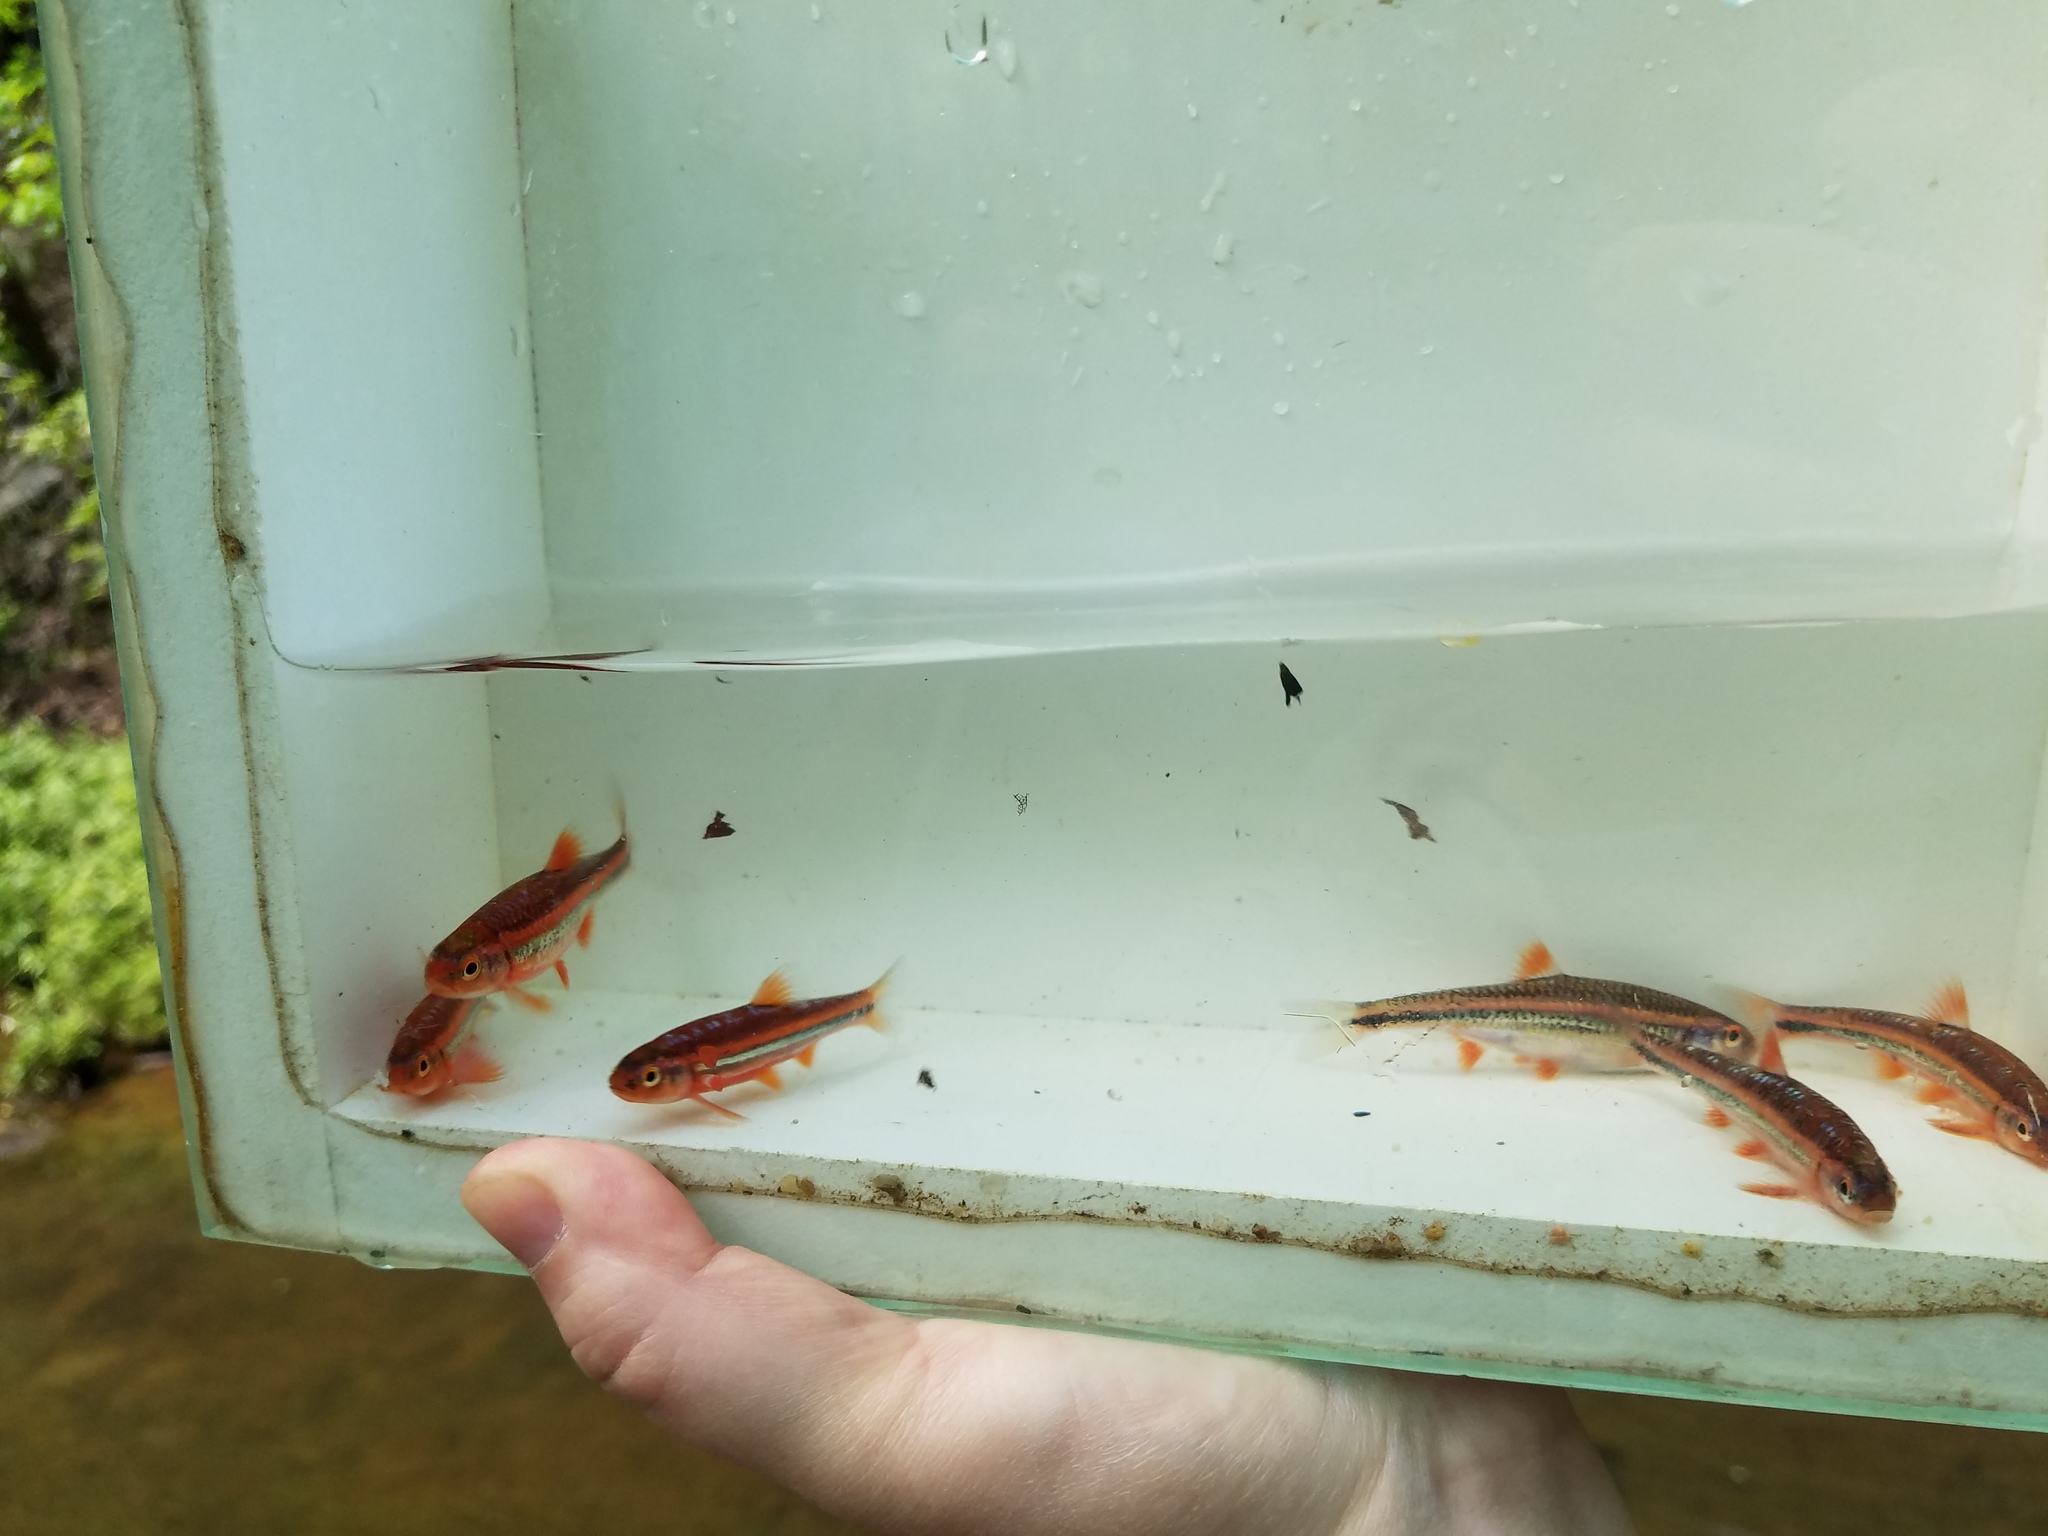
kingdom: Animalia
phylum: Chordata
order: Cypriniformes
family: Cyprinidae
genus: Notropis
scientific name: Notropis
